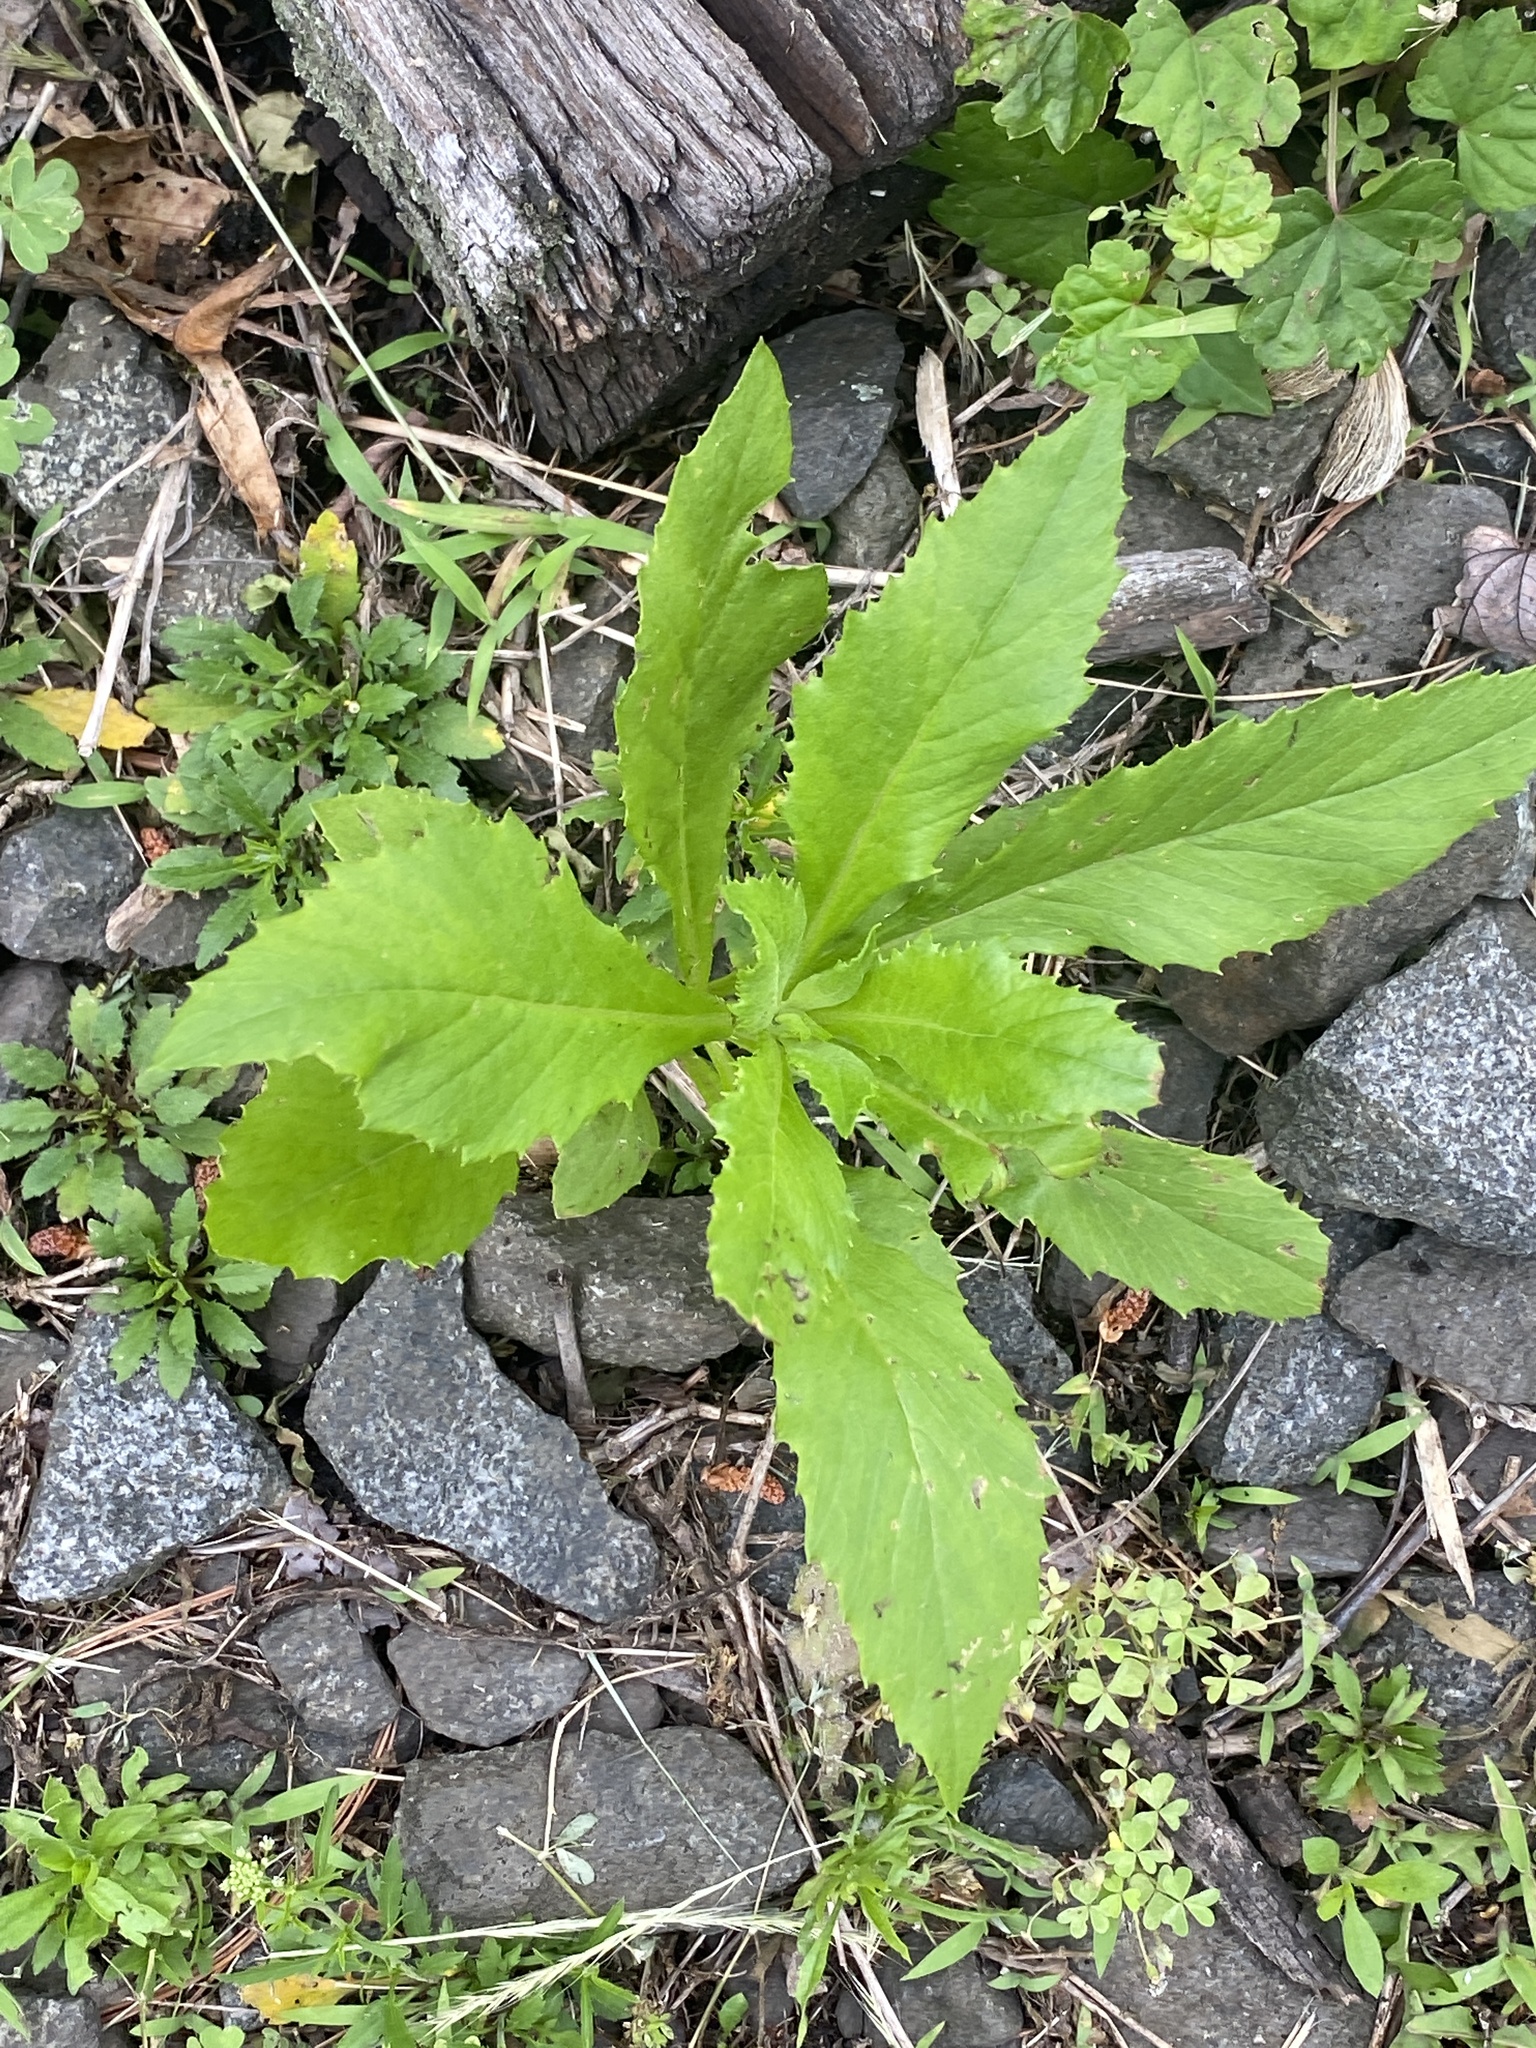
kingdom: Plantae
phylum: Tracheophyta
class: Magnoliopsida
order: Asterales
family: Asteraceae
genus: Erechtites
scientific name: Erechtites hieraciifolius
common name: American burnweed
